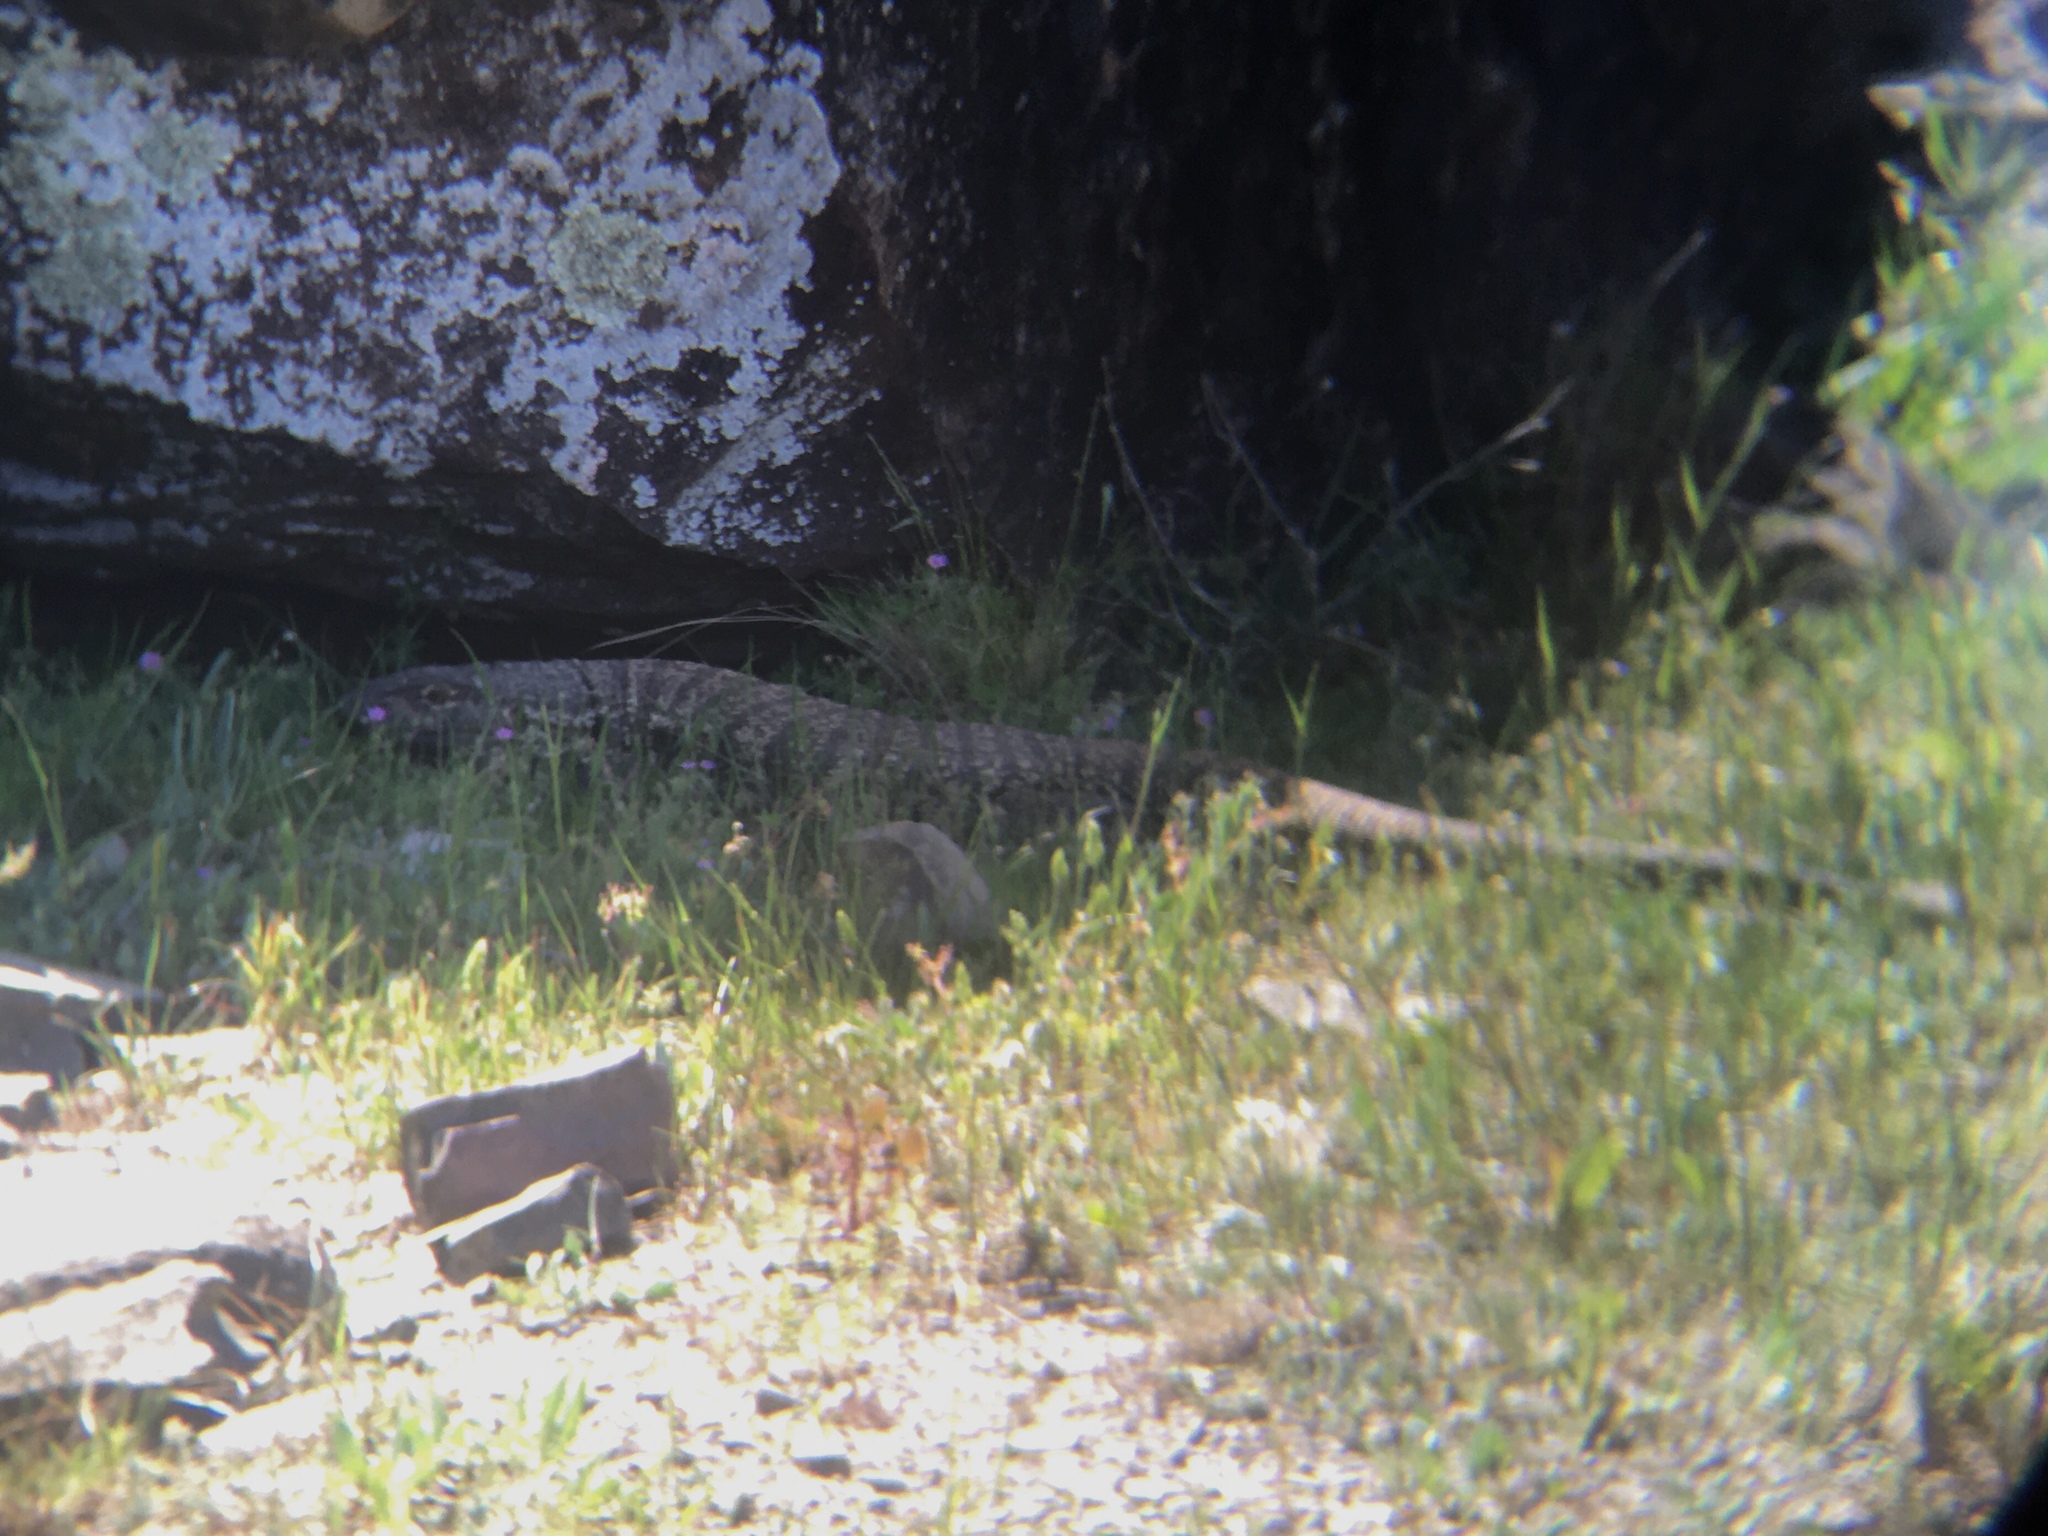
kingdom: Animalia
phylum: Chordata
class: Squamata
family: Teiidae
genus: Salvator
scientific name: Salvator merianae
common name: Argentine black and white tegu
